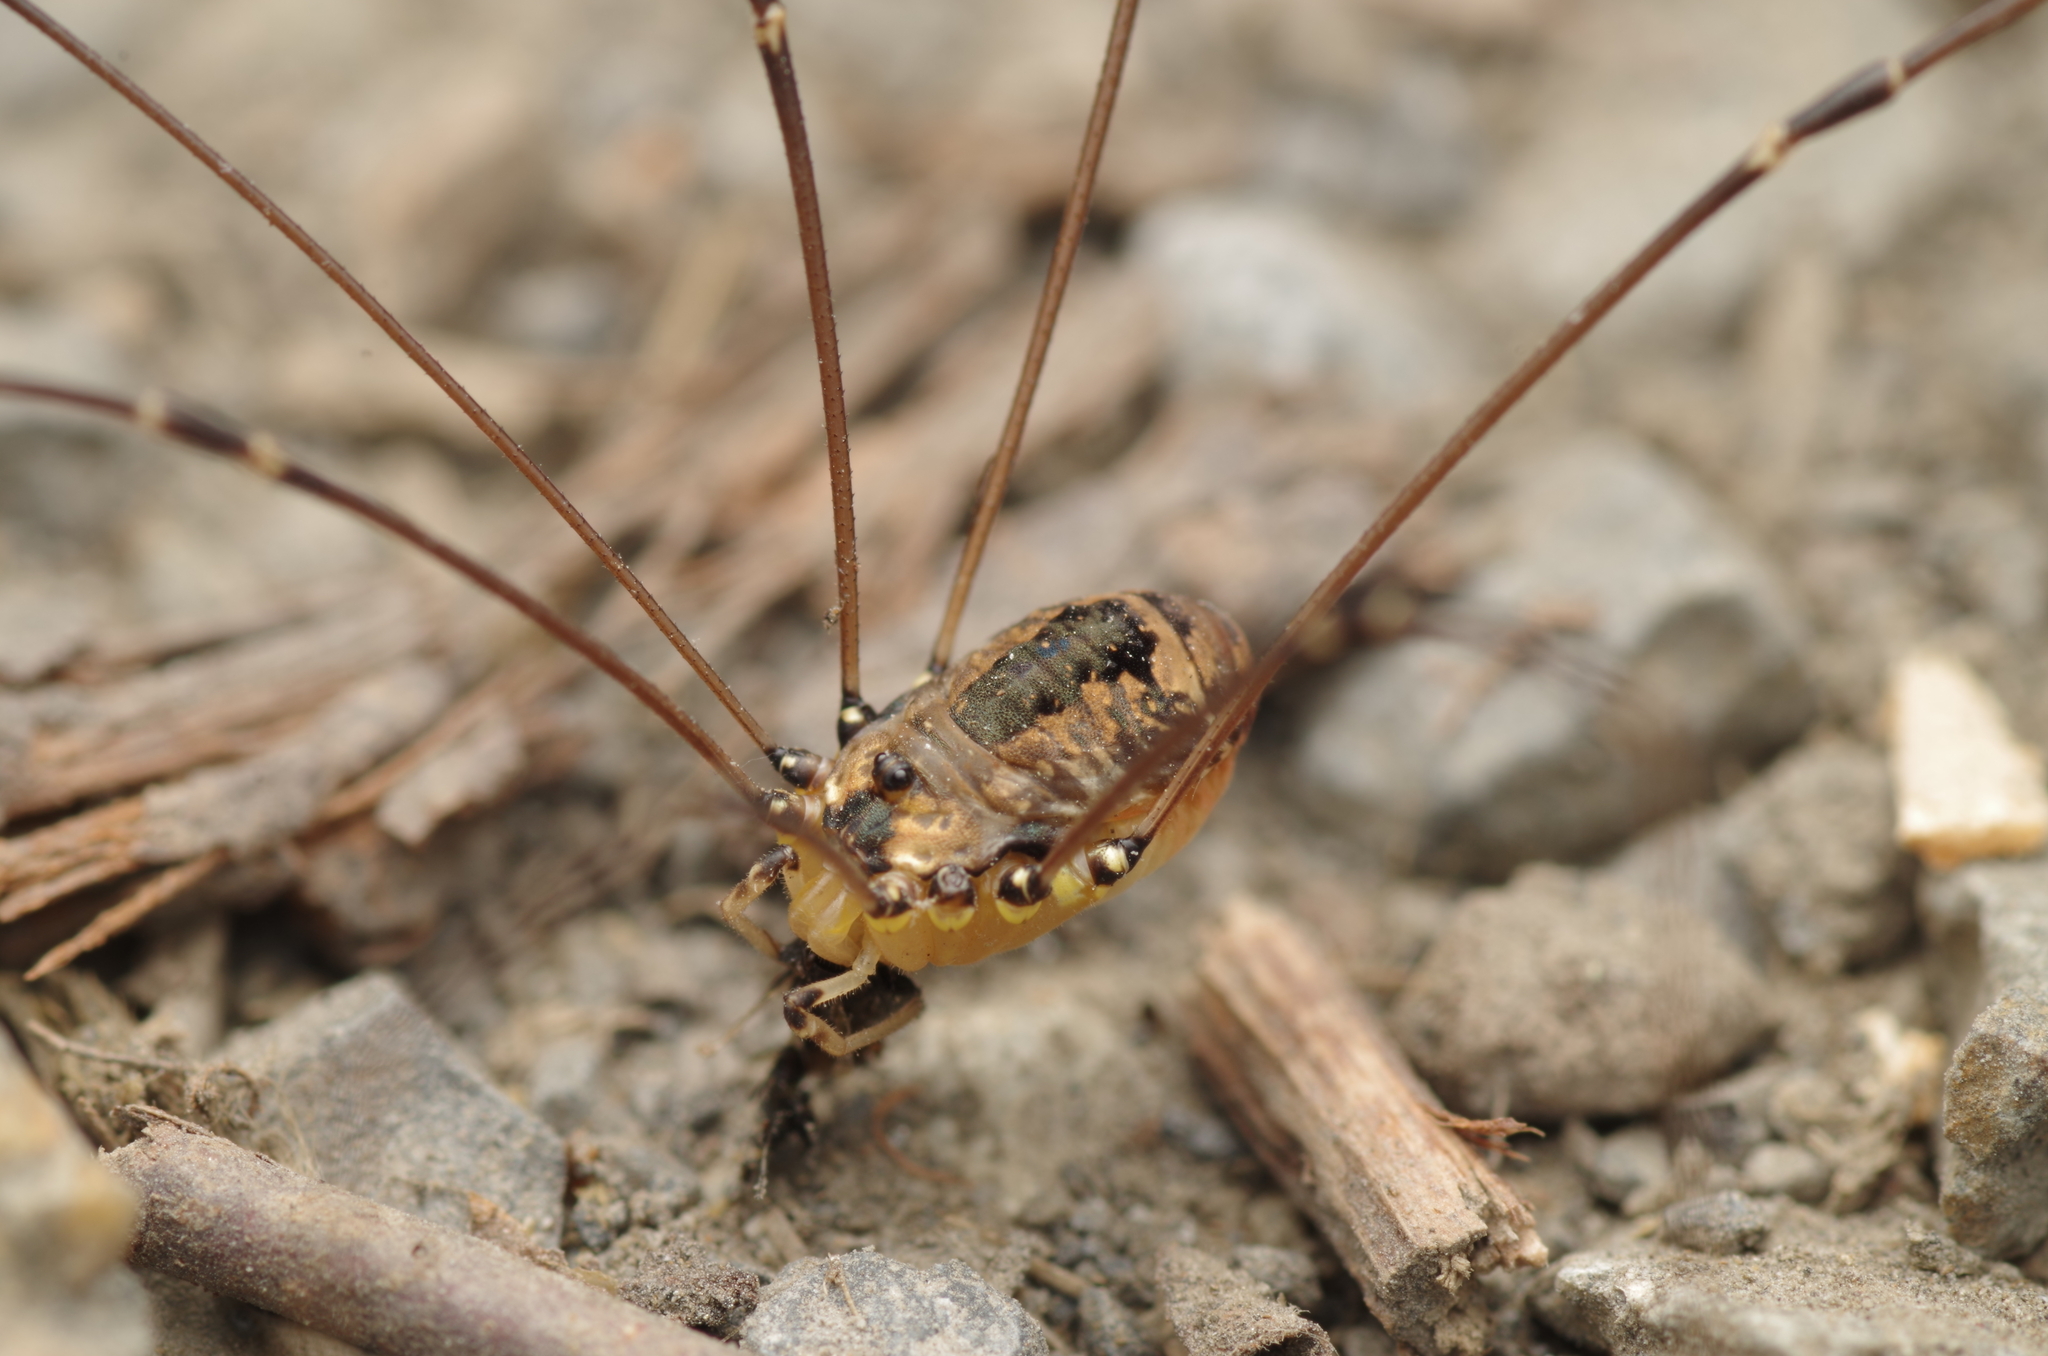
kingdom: Animalia
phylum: Arthropoda
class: Arachnida
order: Opiliones
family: Sclerosomatidae
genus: Leiobunum
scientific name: Leiobunum rotundum
